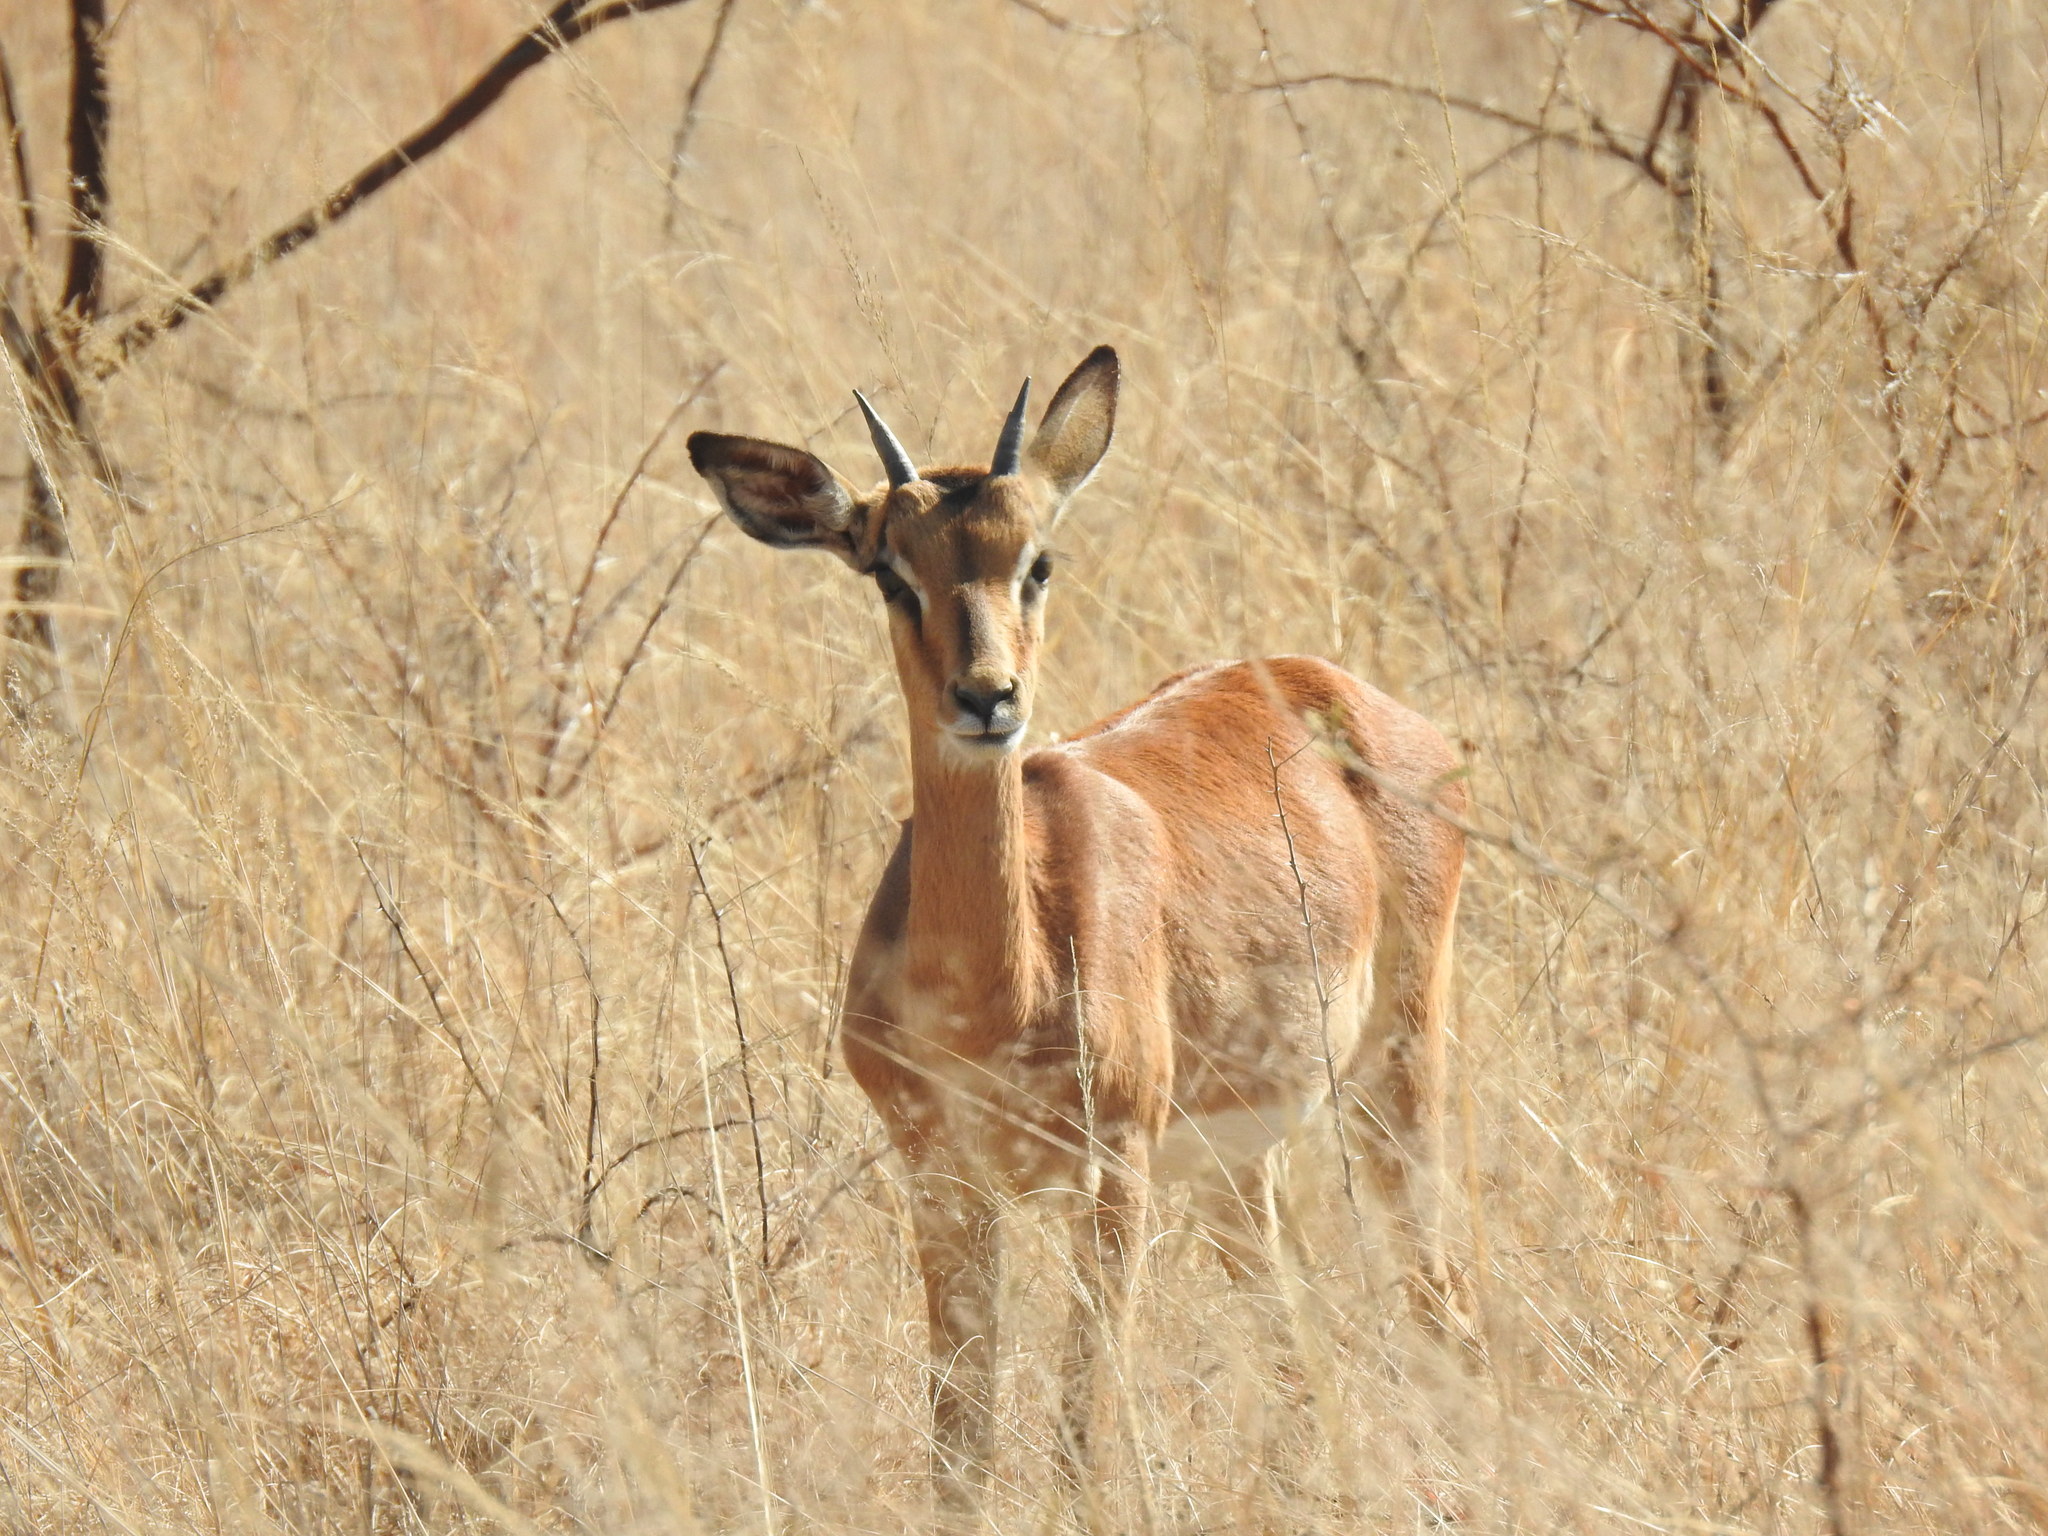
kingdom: Animalia
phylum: Chordata
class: Mammalia
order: Artiodactyla
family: Bovidae
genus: Aepyceros
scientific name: Aepyceros melampus
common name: Impala
